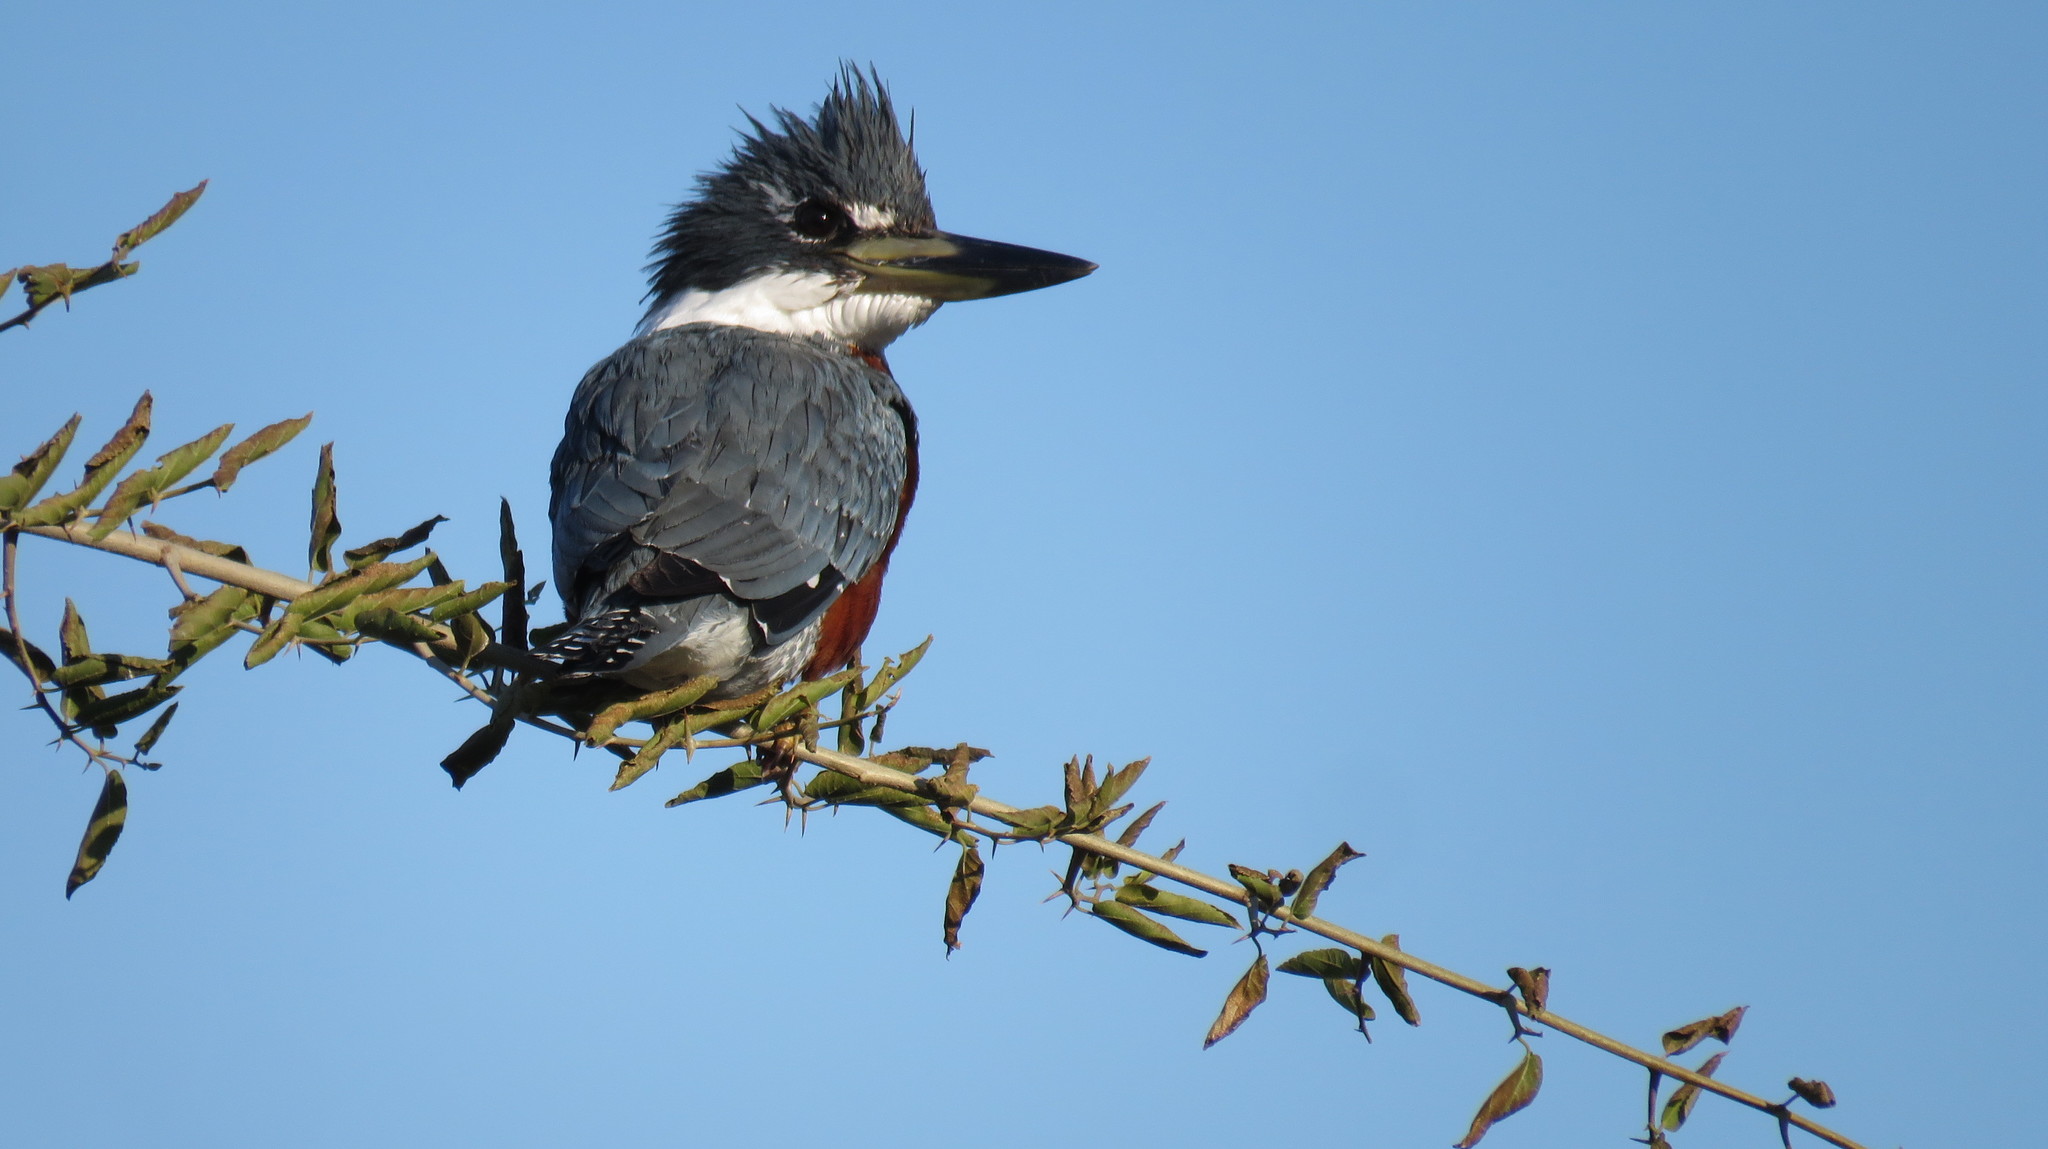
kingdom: Animalia
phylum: Chordata
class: Aves
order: Coraciiformes
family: Alcedinidae
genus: Megaceryle
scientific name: Megaceryle torquata
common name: Ringed kingfisher
